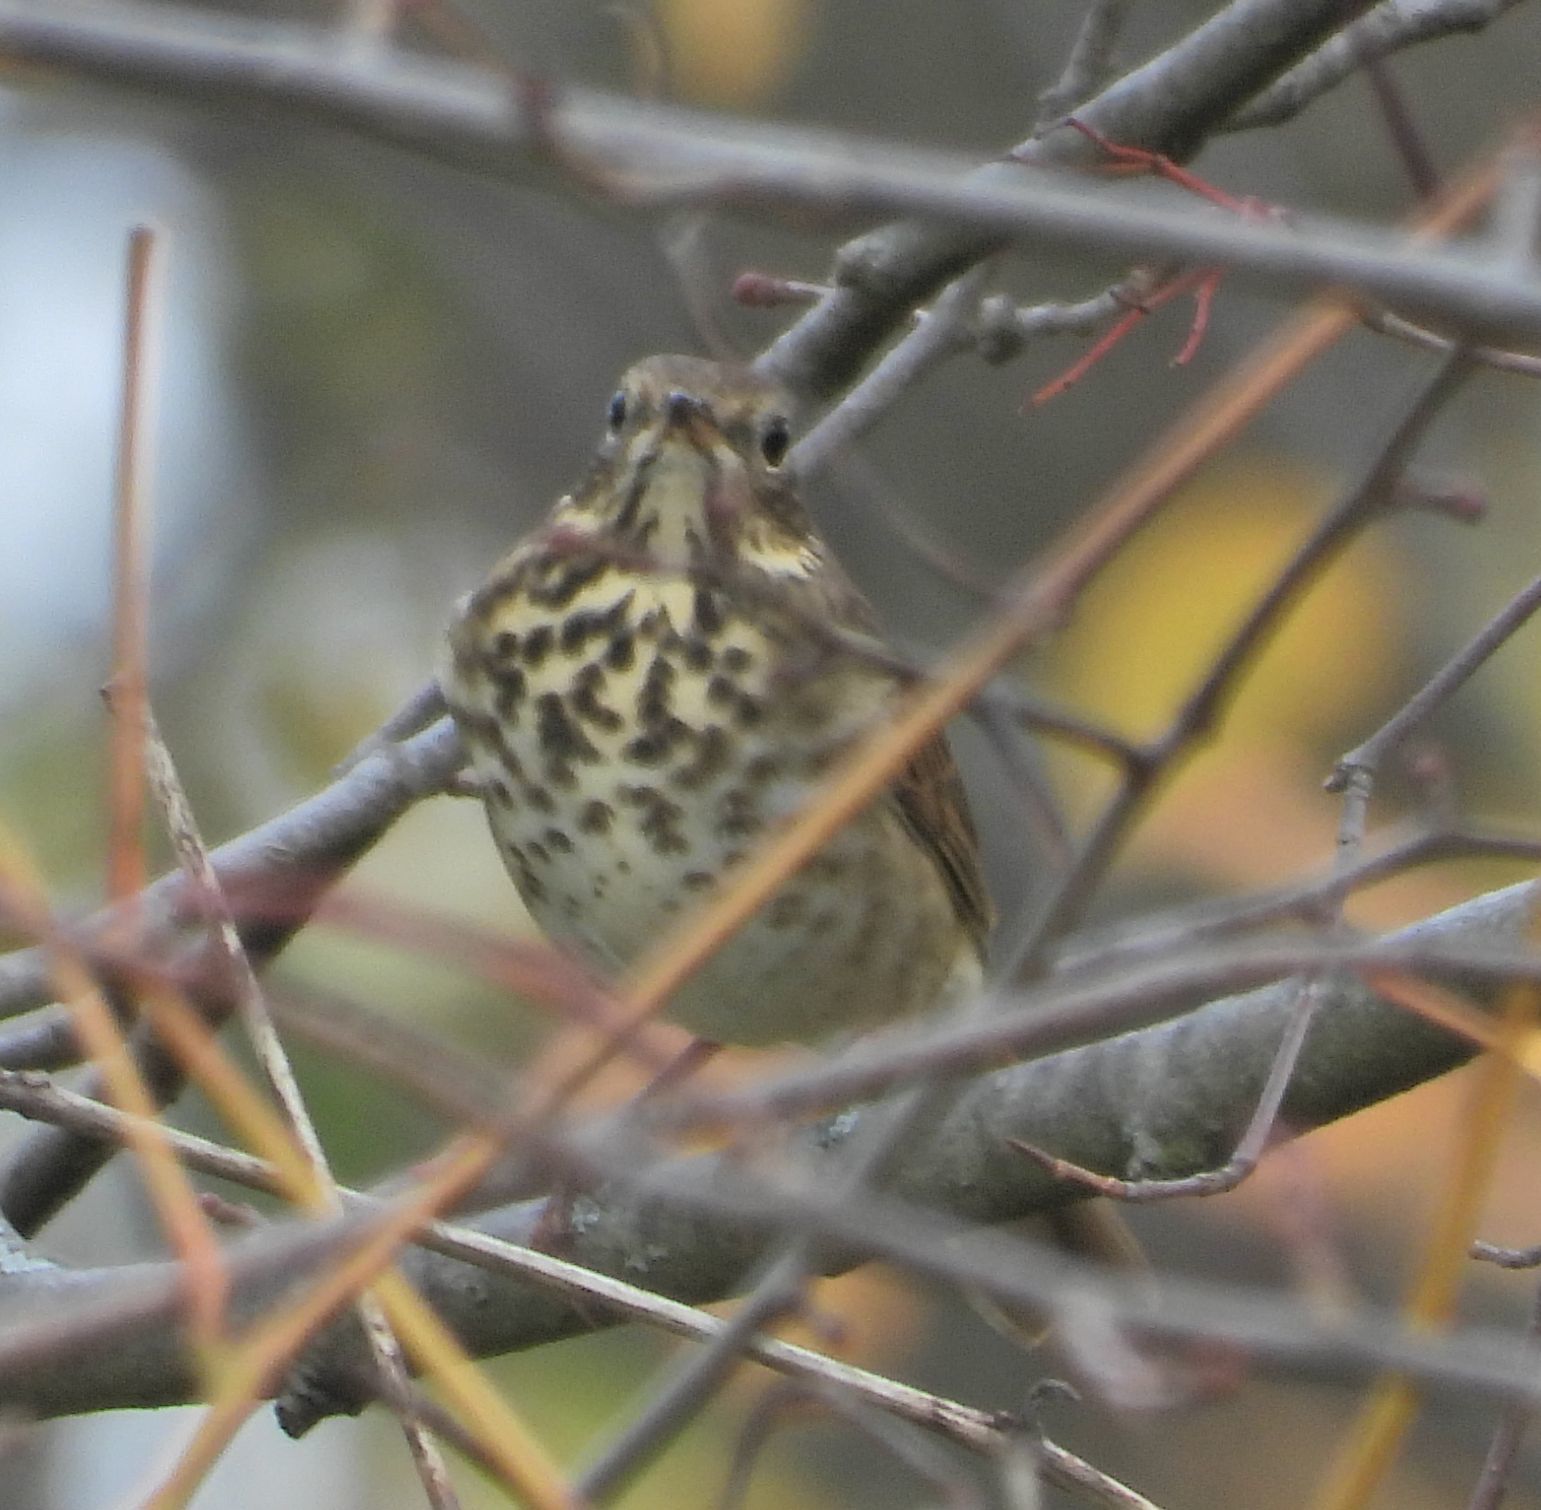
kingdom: Animalia
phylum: Chordata
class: Aves
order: Passeriformes
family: Turdidae
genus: Catharus
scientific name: Catharus guttatus
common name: Hermit thrush
